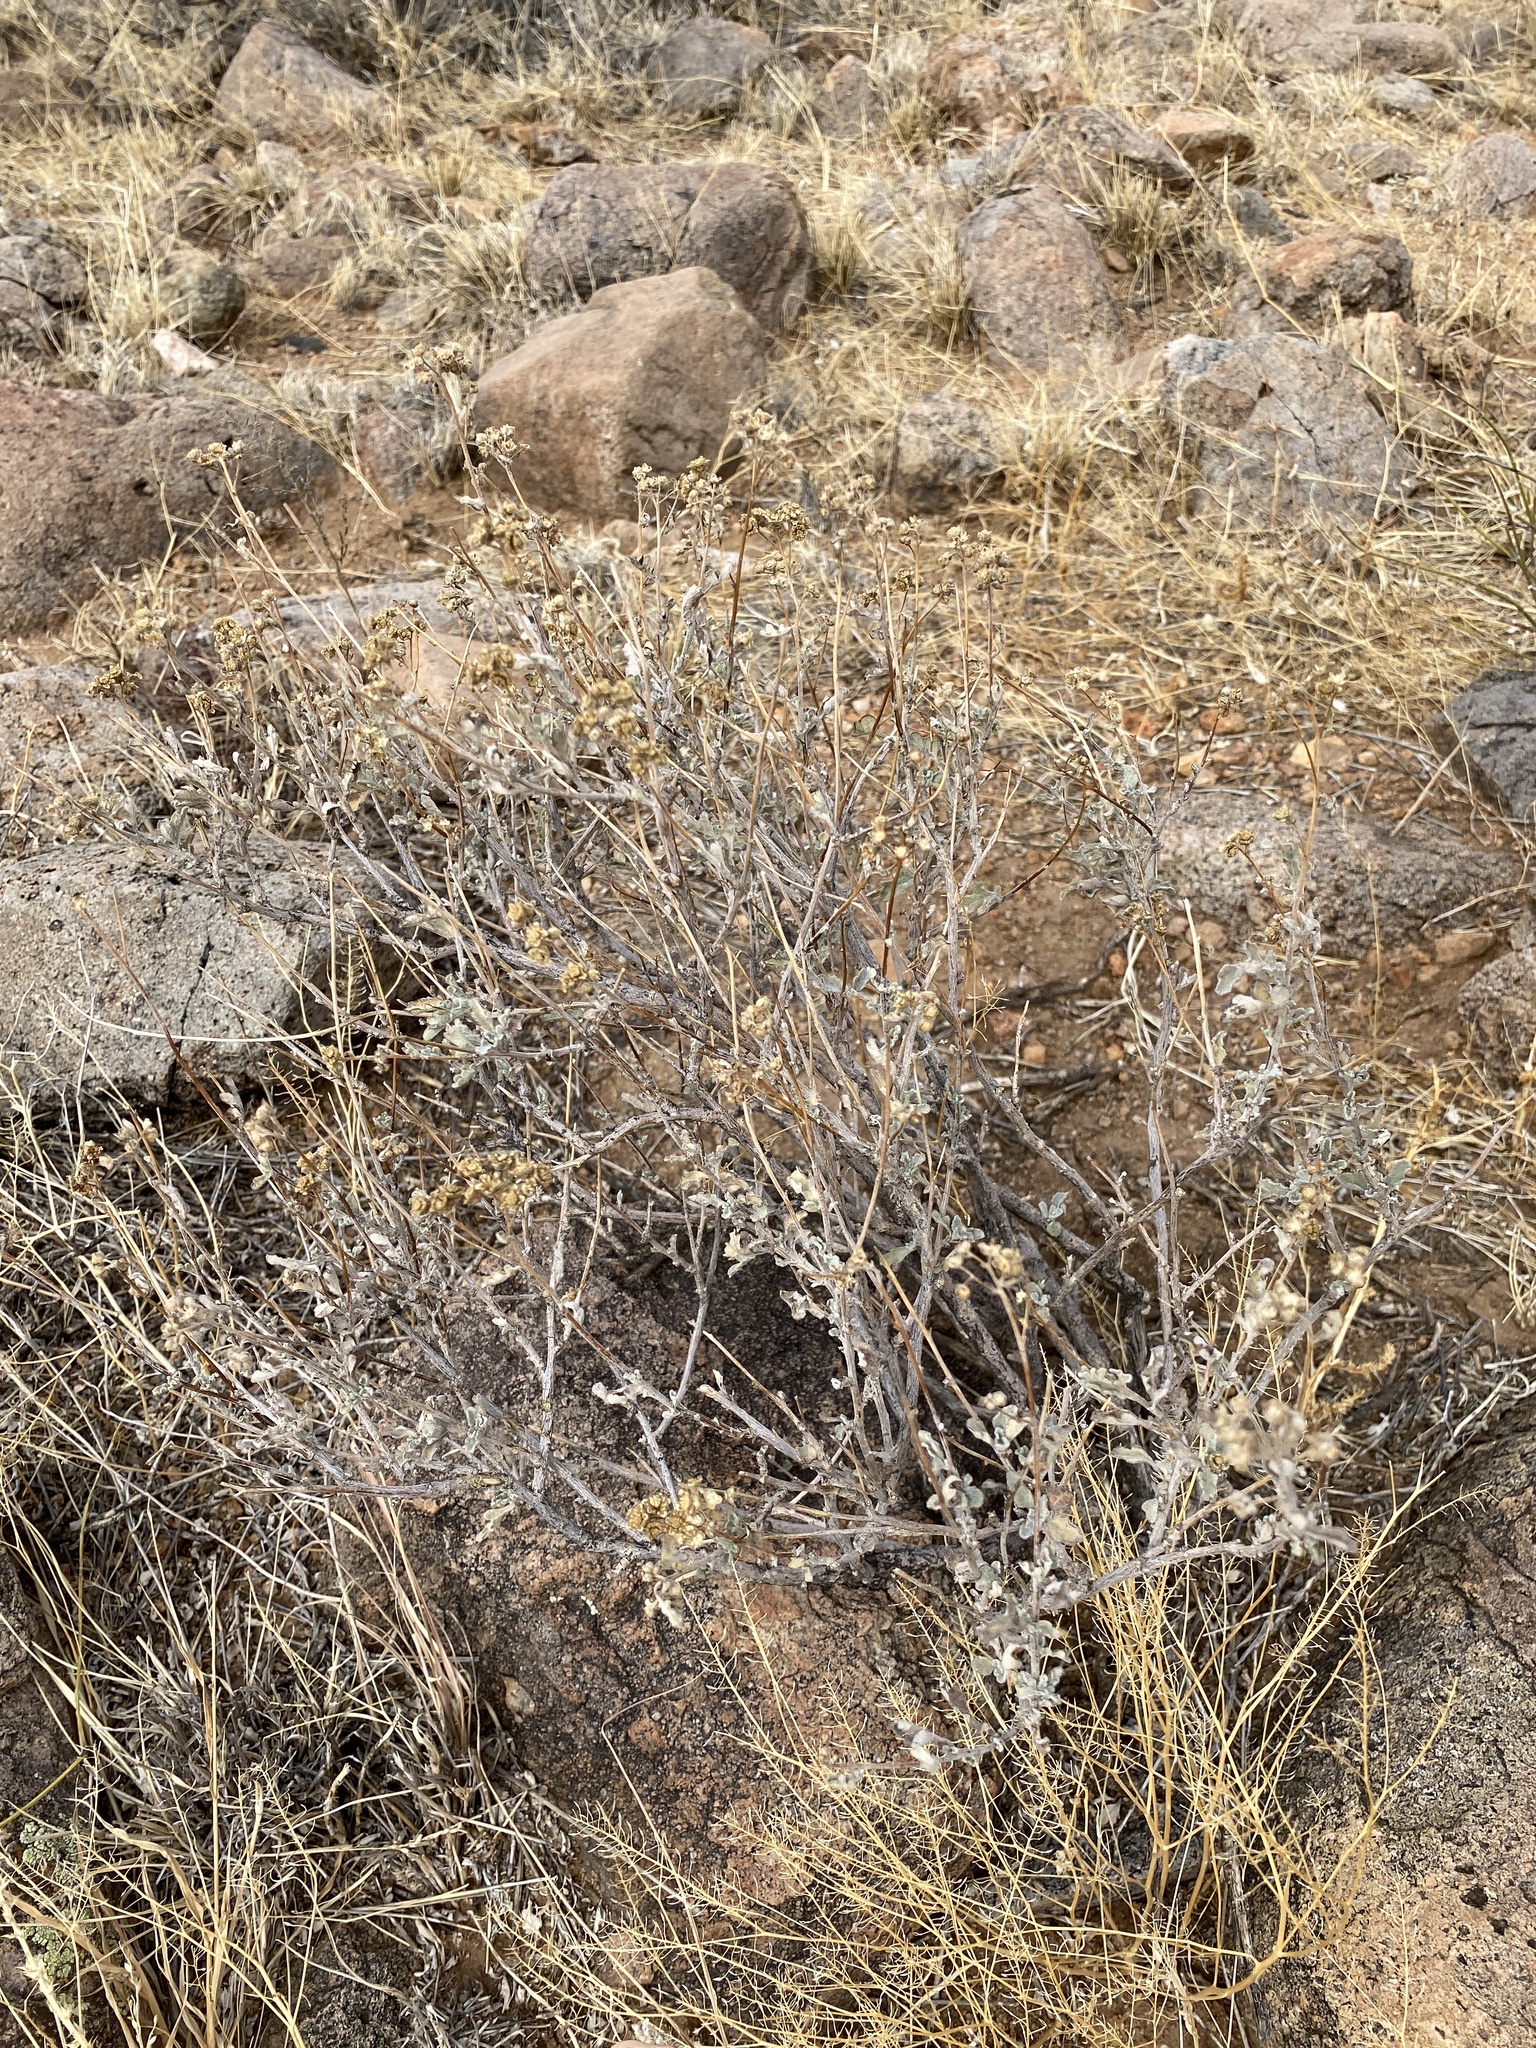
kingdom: Plantae
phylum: Tracheophyta
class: Magnoliopsida
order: Asterales
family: Asteraceae
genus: Parthenium
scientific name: Parthenium incanum
